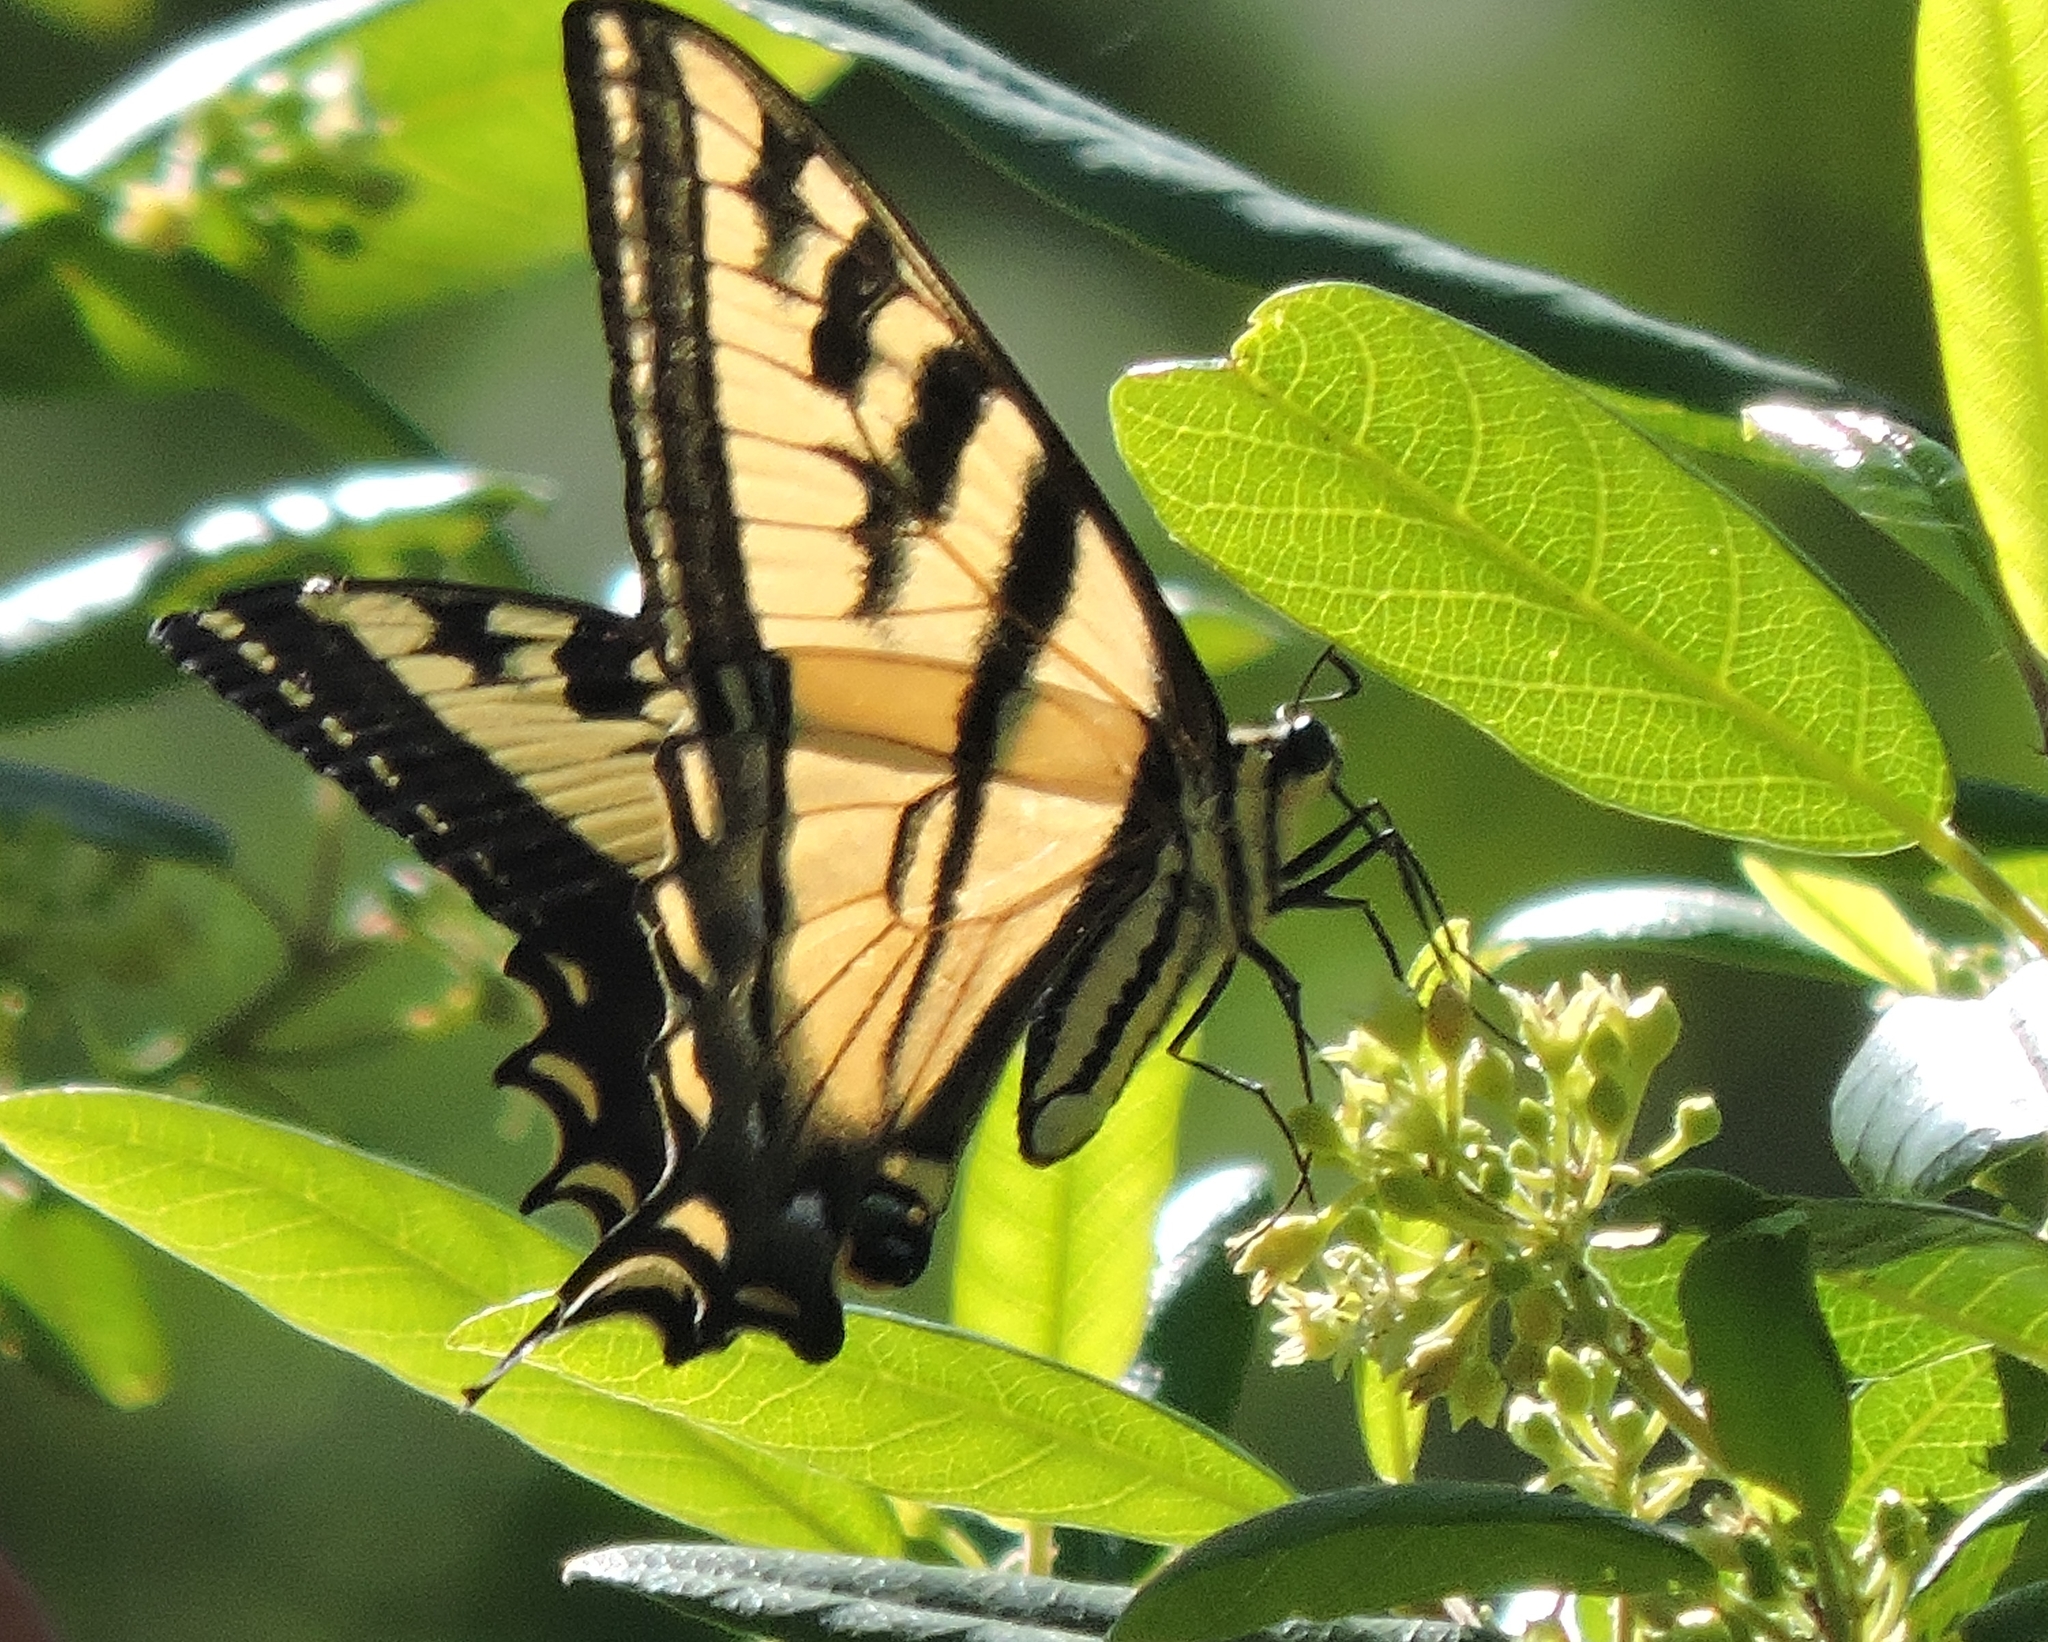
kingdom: Animalia
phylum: Arthropoda
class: Insecta
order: Lepidoptera
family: Papilionidae
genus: Papilio
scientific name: Papilio rutulus
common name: Western tiger swallowtail
